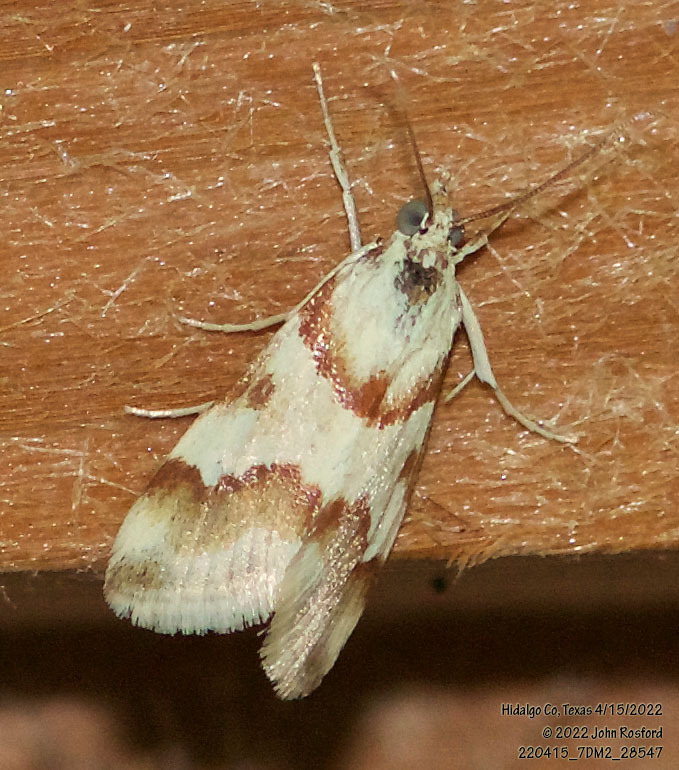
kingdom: Animalia
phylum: Arthropoda
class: Insecta
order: Lepidoptera
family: Crambidae
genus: Noctuelia
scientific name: Noctuelia Mimoschinia rufofascialis
